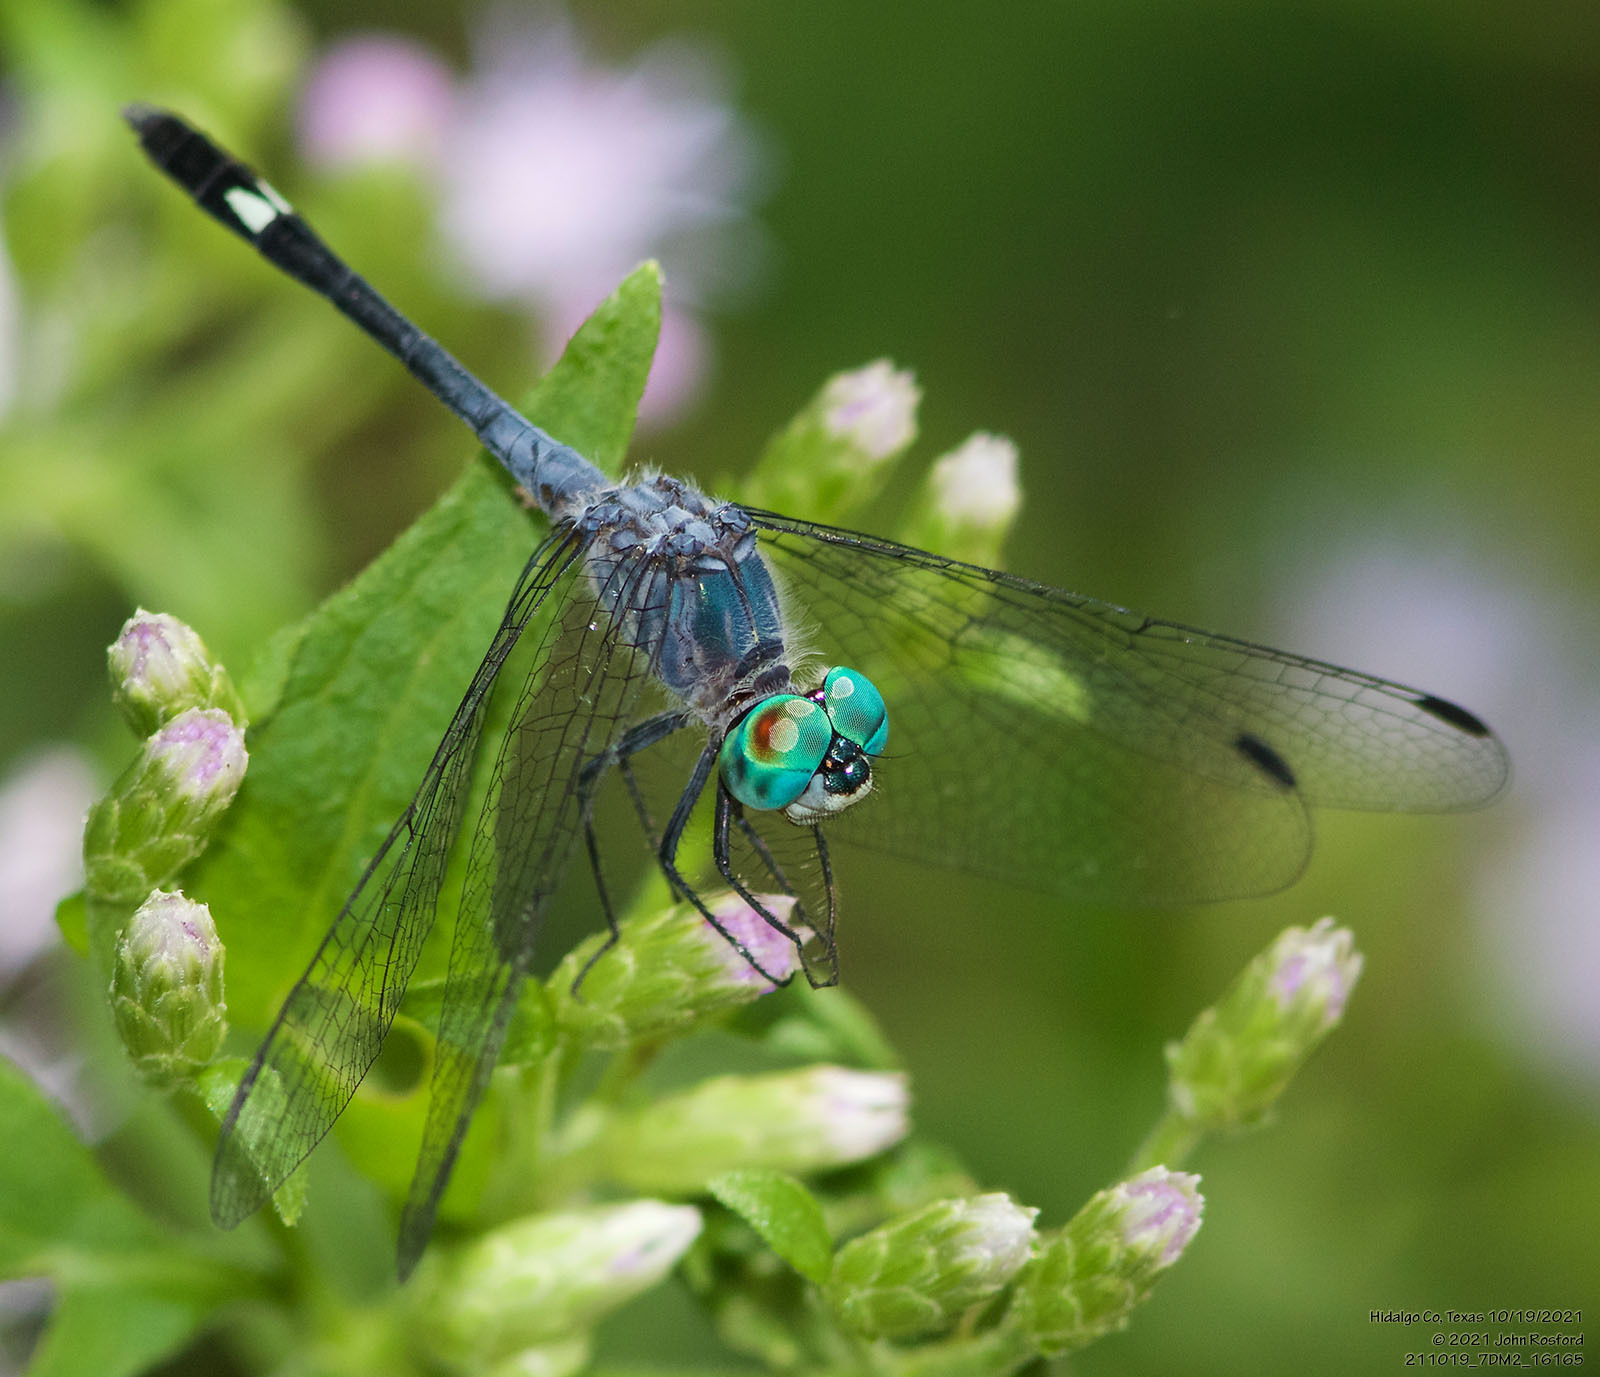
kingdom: Animalia
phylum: Arthropoda
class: Insecta
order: Odonata
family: Libellulidae
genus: Micrathyria
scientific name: Micrathyria aequalis
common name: Spot-tailed dasher
